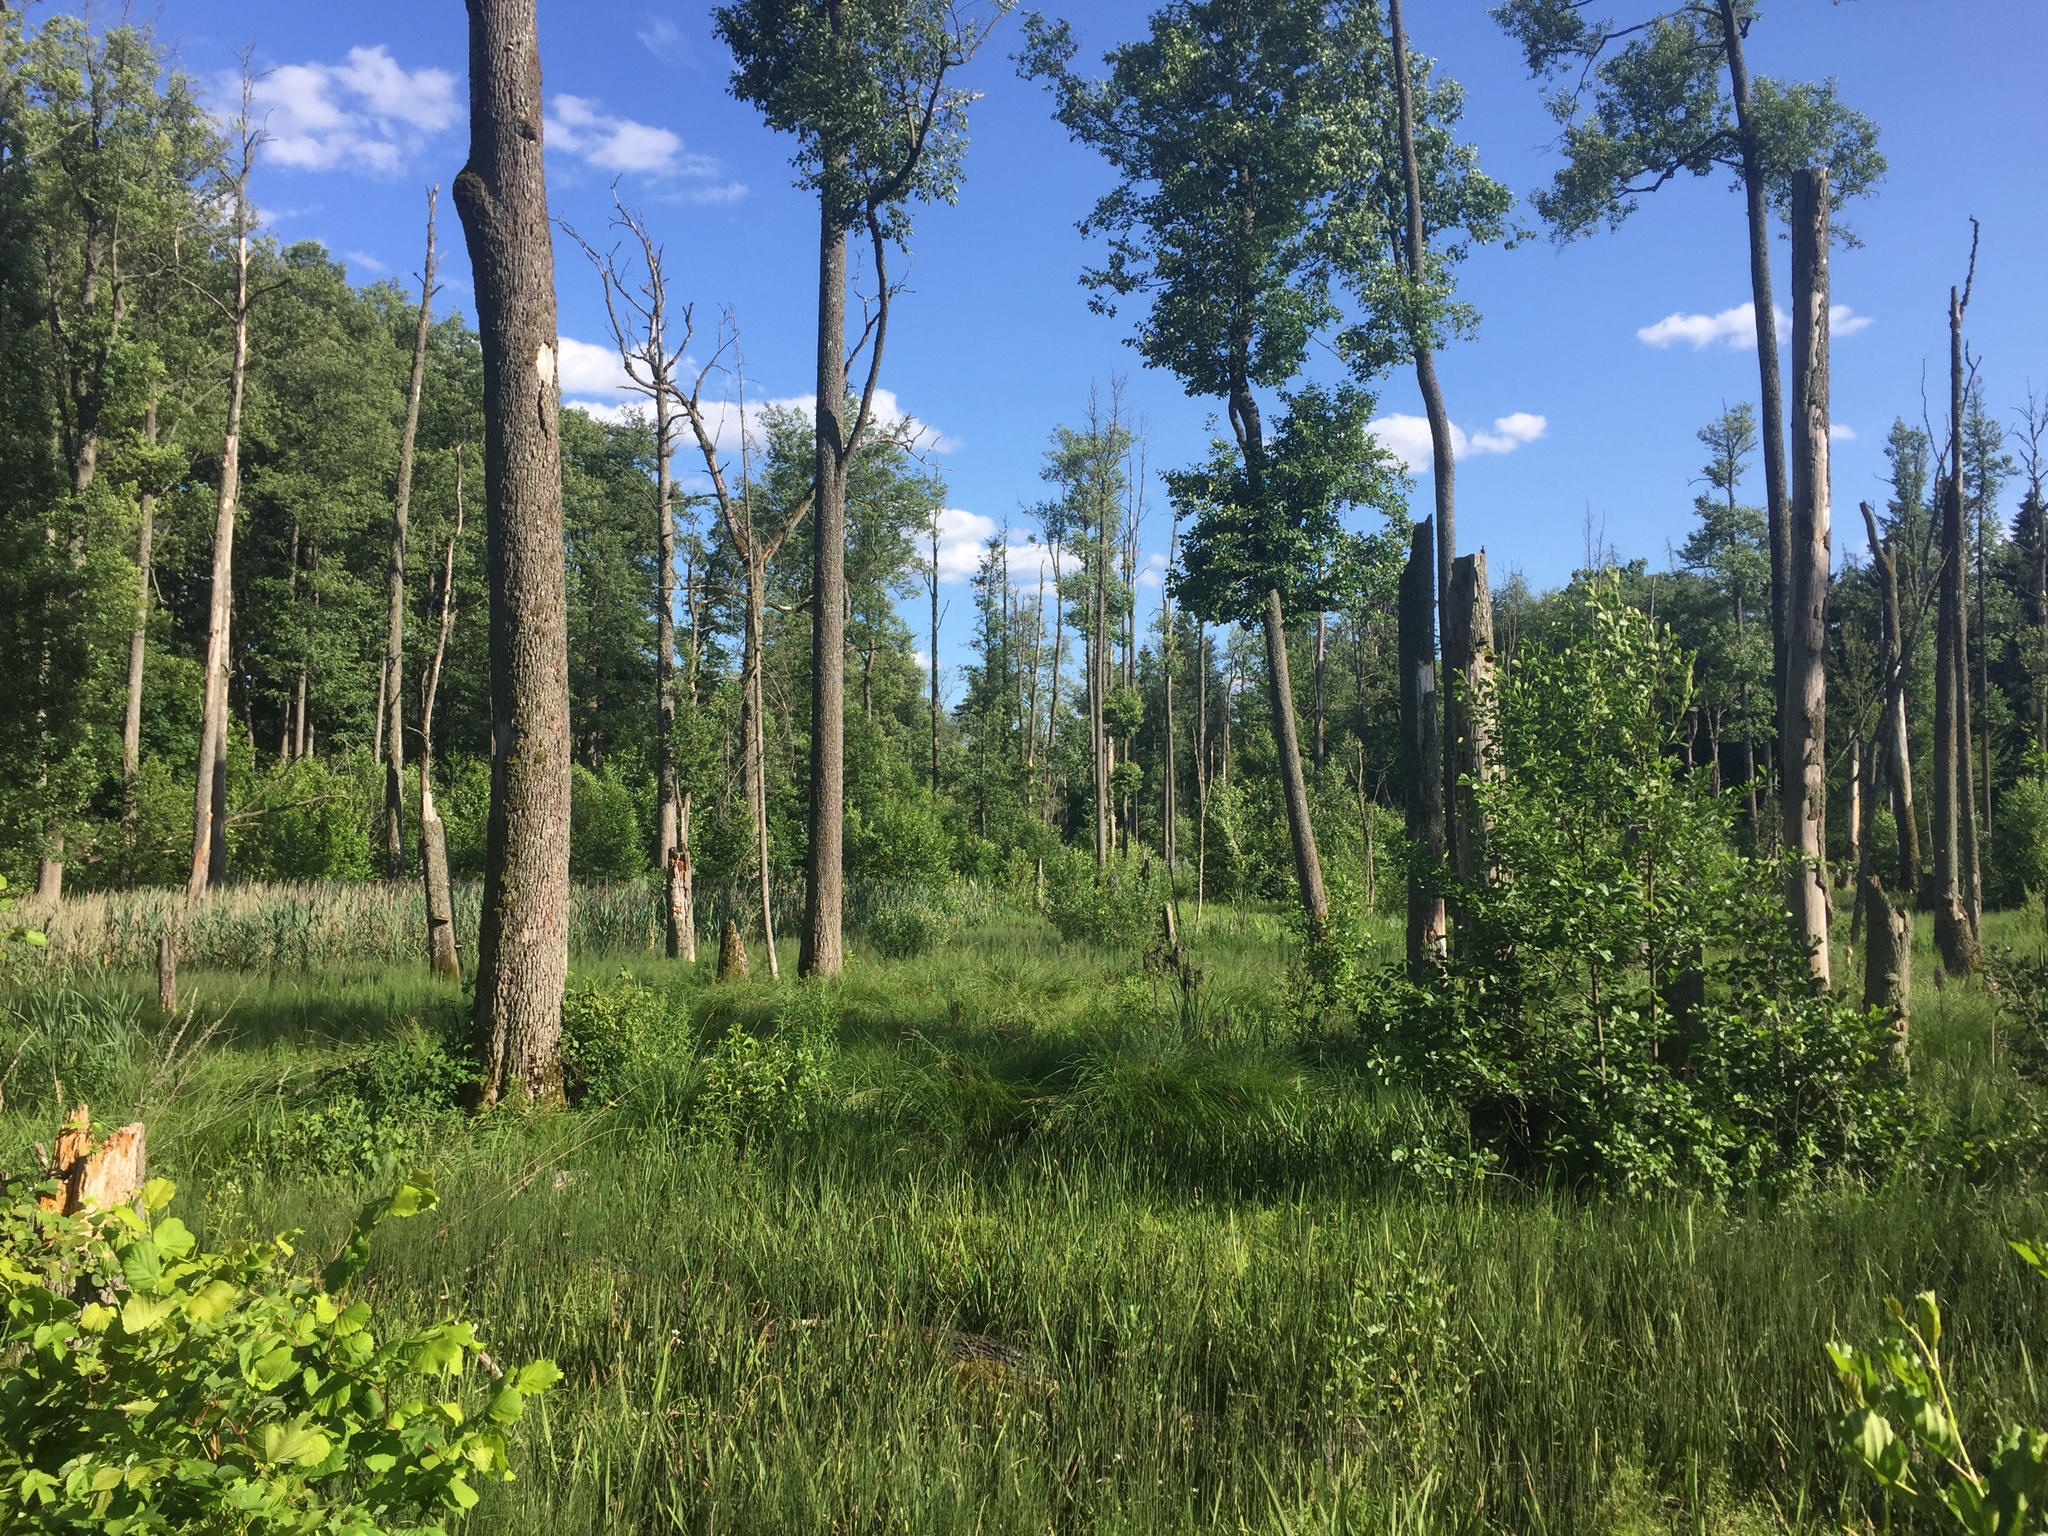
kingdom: Plantae
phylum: Tracheophyta
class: Magnoliopsida
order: Fagales
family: Betulaceae
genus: Alnus
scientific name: Alnus glutinosa
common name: Black alder
